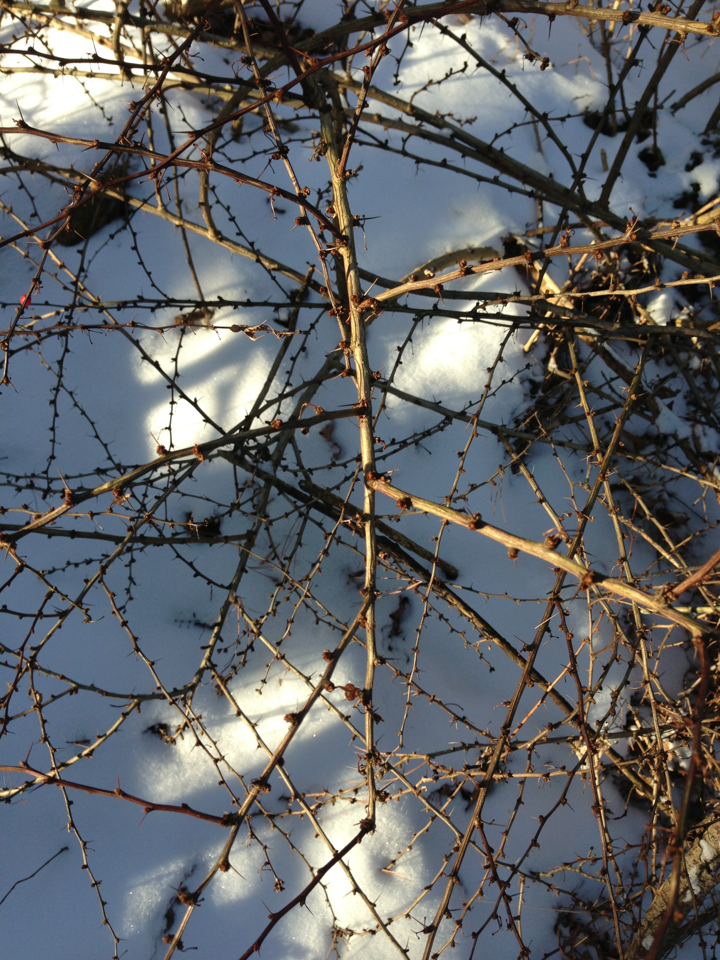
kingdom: Plantae
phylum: Tracheophyta
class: Magnoliopsida
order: Ranunculales
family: Berberidaceae
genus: Berberis
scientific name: Berberis thunbergii
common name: Japanese barberry
